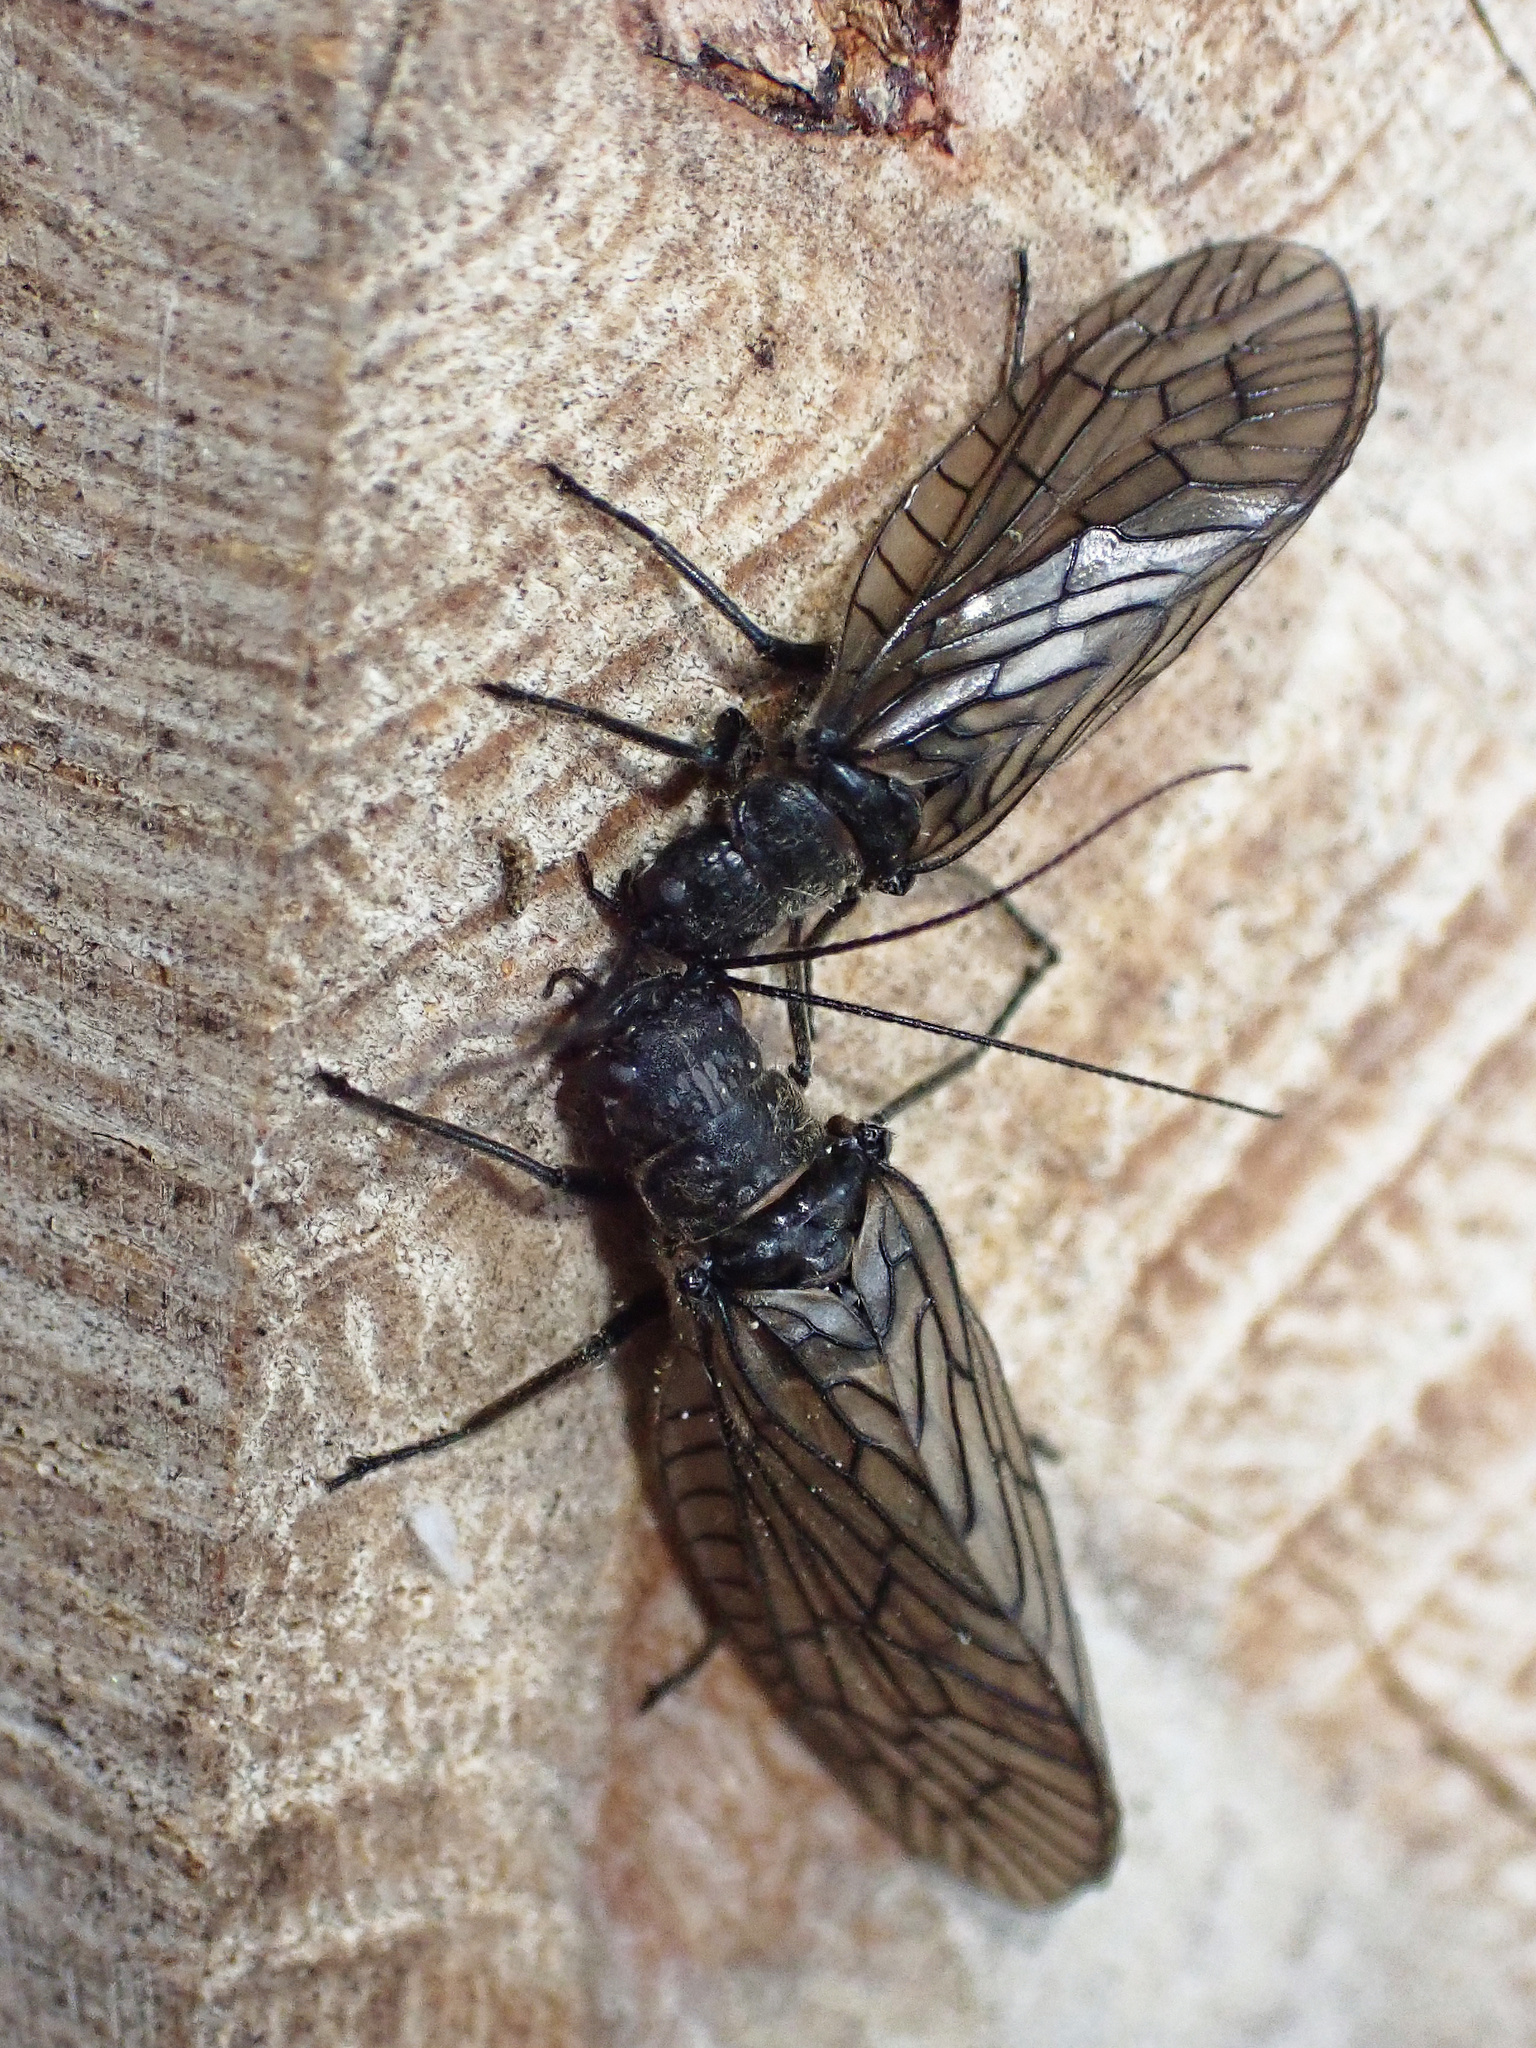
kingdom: Animalia
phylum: Arthropoda
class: Insecta
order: Megaloptera
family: Sialidae
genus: Sialis
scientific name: Sialis
